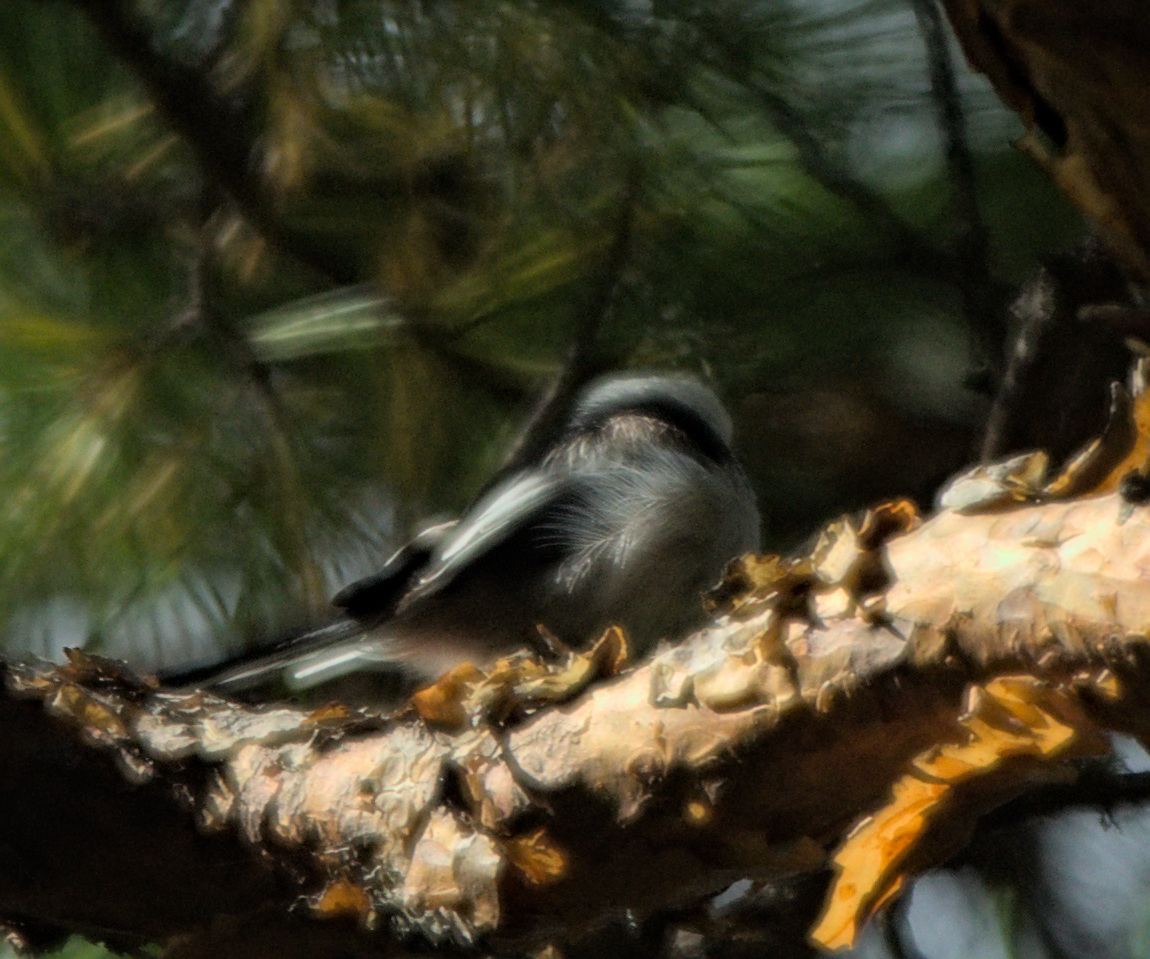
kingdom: Animalia
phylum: Chordata
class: Aves
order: Passeriformes
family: Aegithalidae
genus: Aegithalos
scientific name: Aegithalos caudatus
